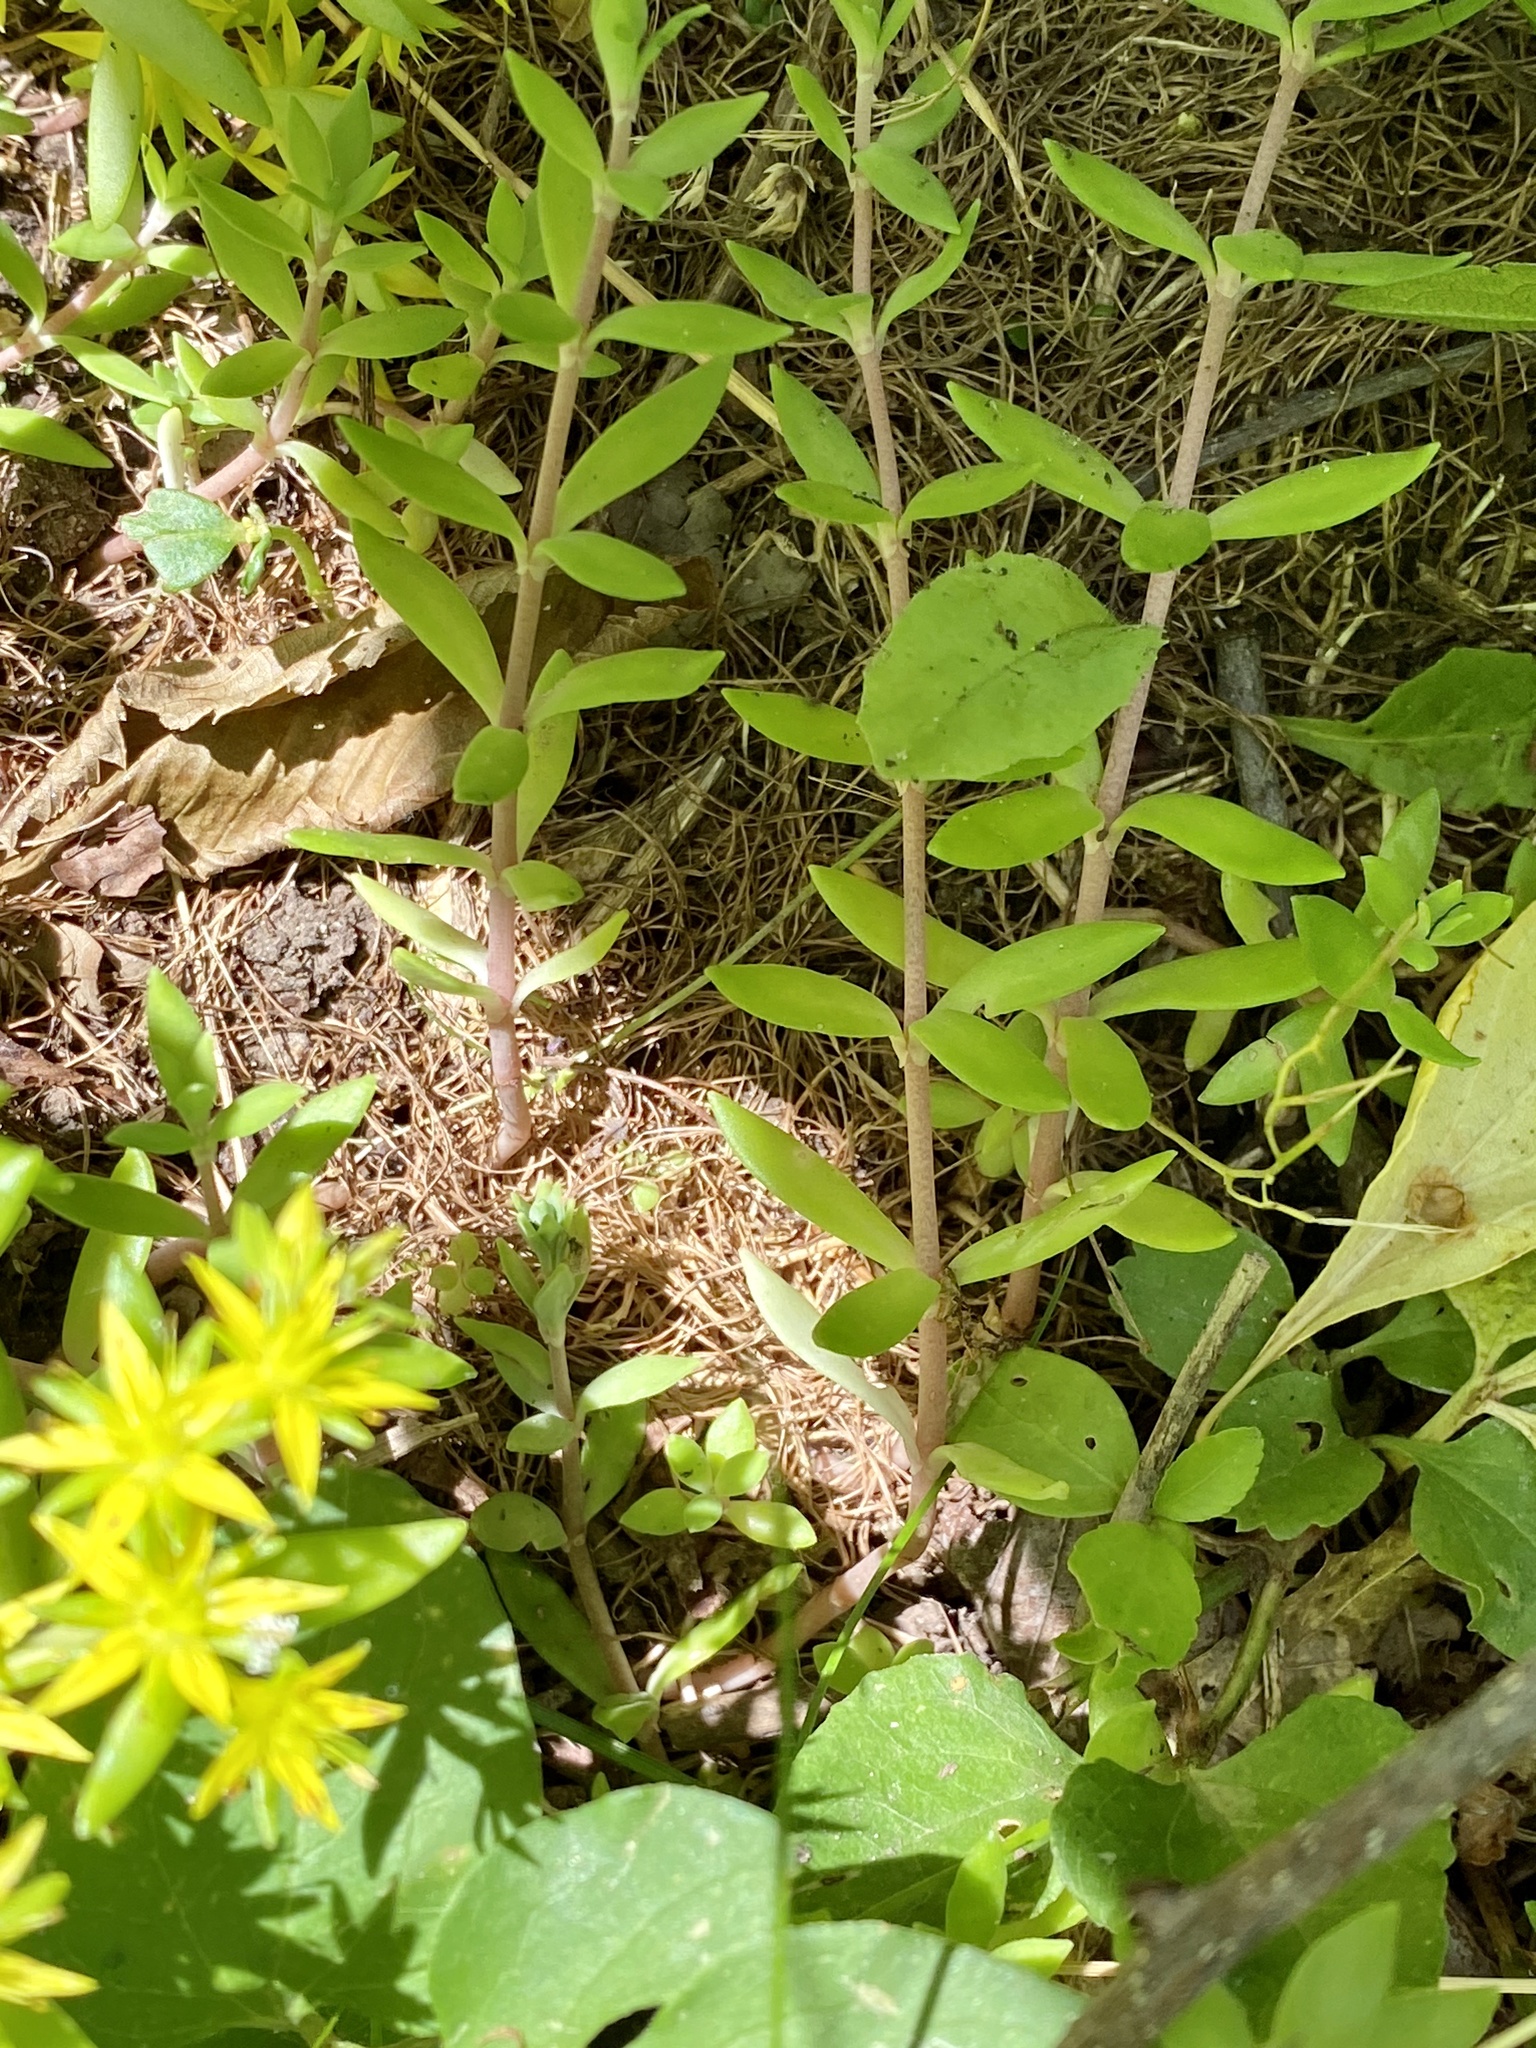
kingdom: Plantae
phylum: Tracheophyta
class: Magnoliopsida
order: Saxifragales
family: Crassulaceae
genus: Sedum
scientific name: Sedum sarmentosum
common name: Stringy stonecrop
